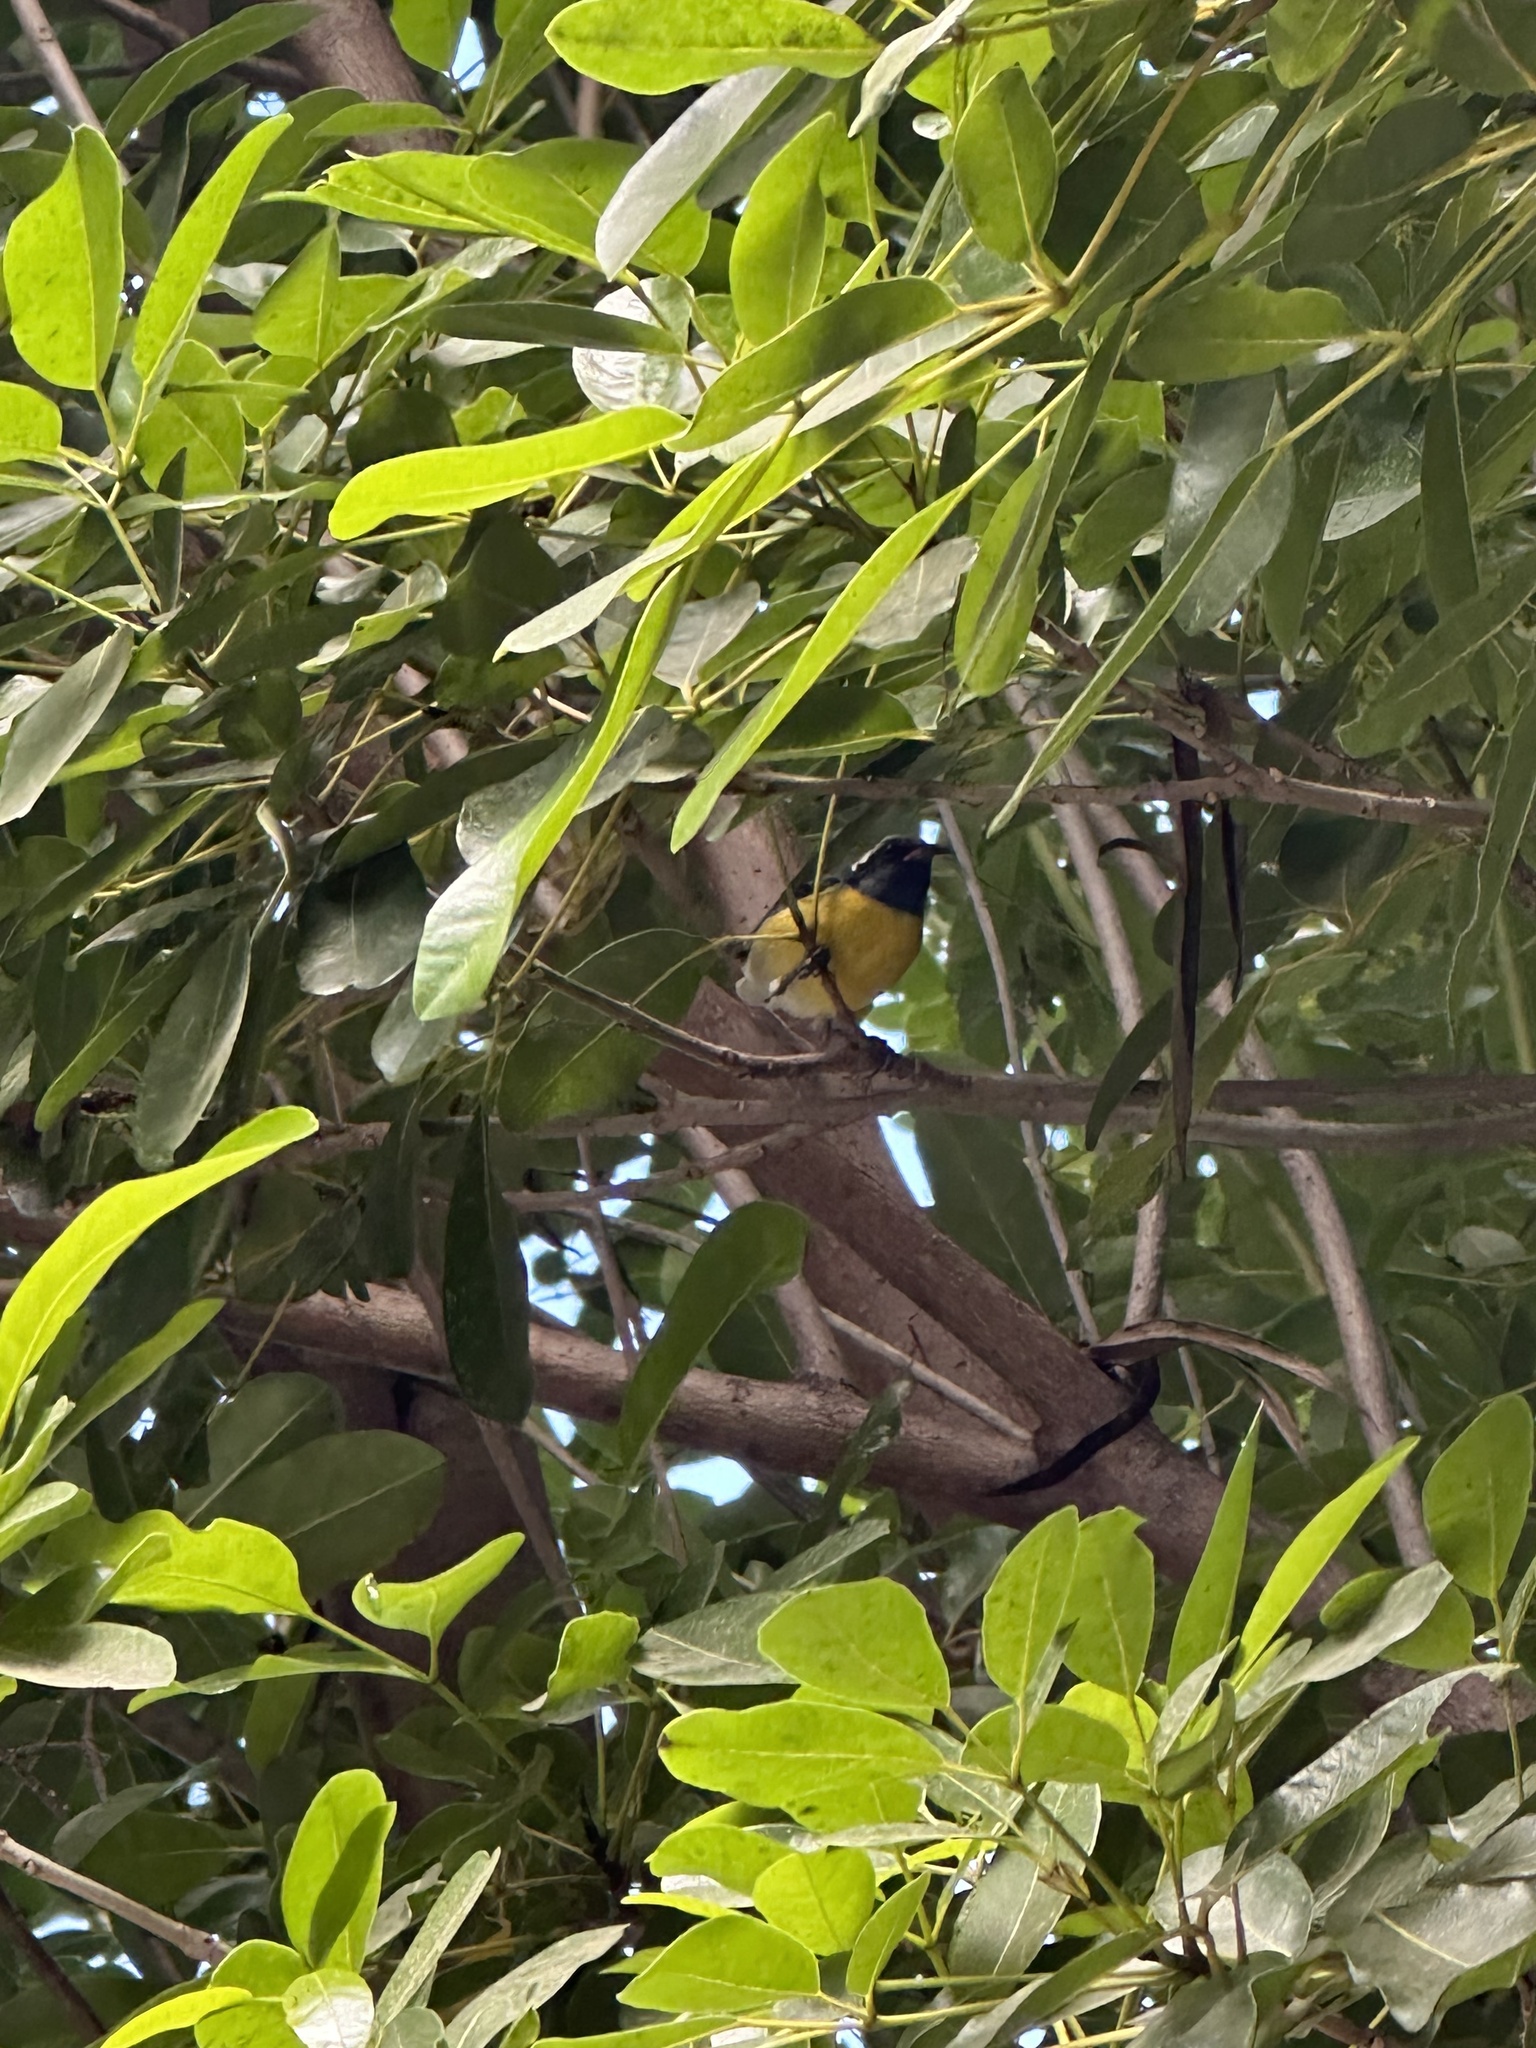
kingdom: Animalia
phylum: Chordata
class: Aves
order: Passeriformes
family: Thraupidae
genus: Coereba
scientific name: Coereba flaveola
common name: Bananaquit
